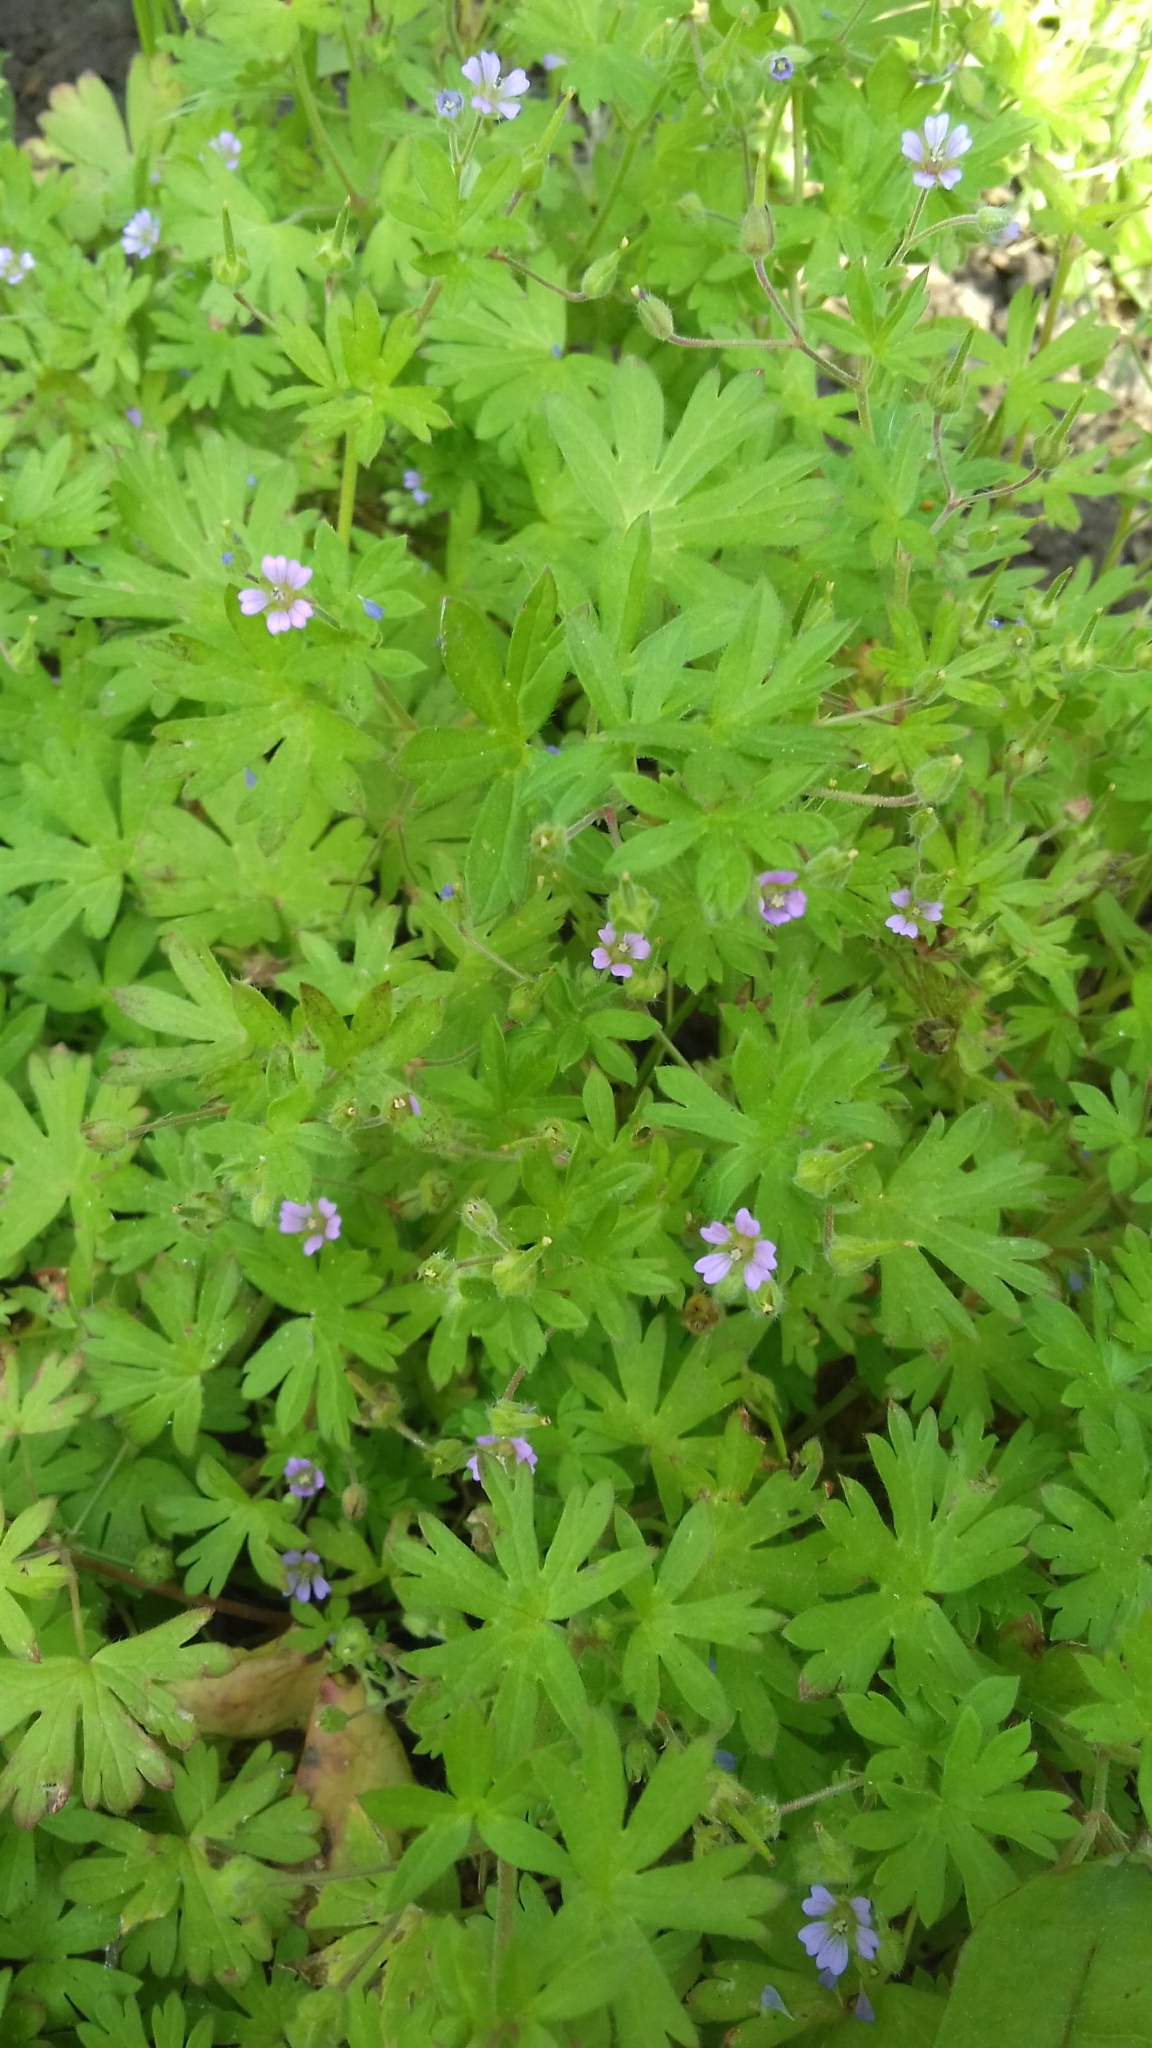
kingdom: Plantae
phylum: Tracheophyta
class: Magnoliopsida
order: Geraniales
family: Geraniaceae
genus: Geranium
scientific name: Geranium pusillum
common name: Small geranium
